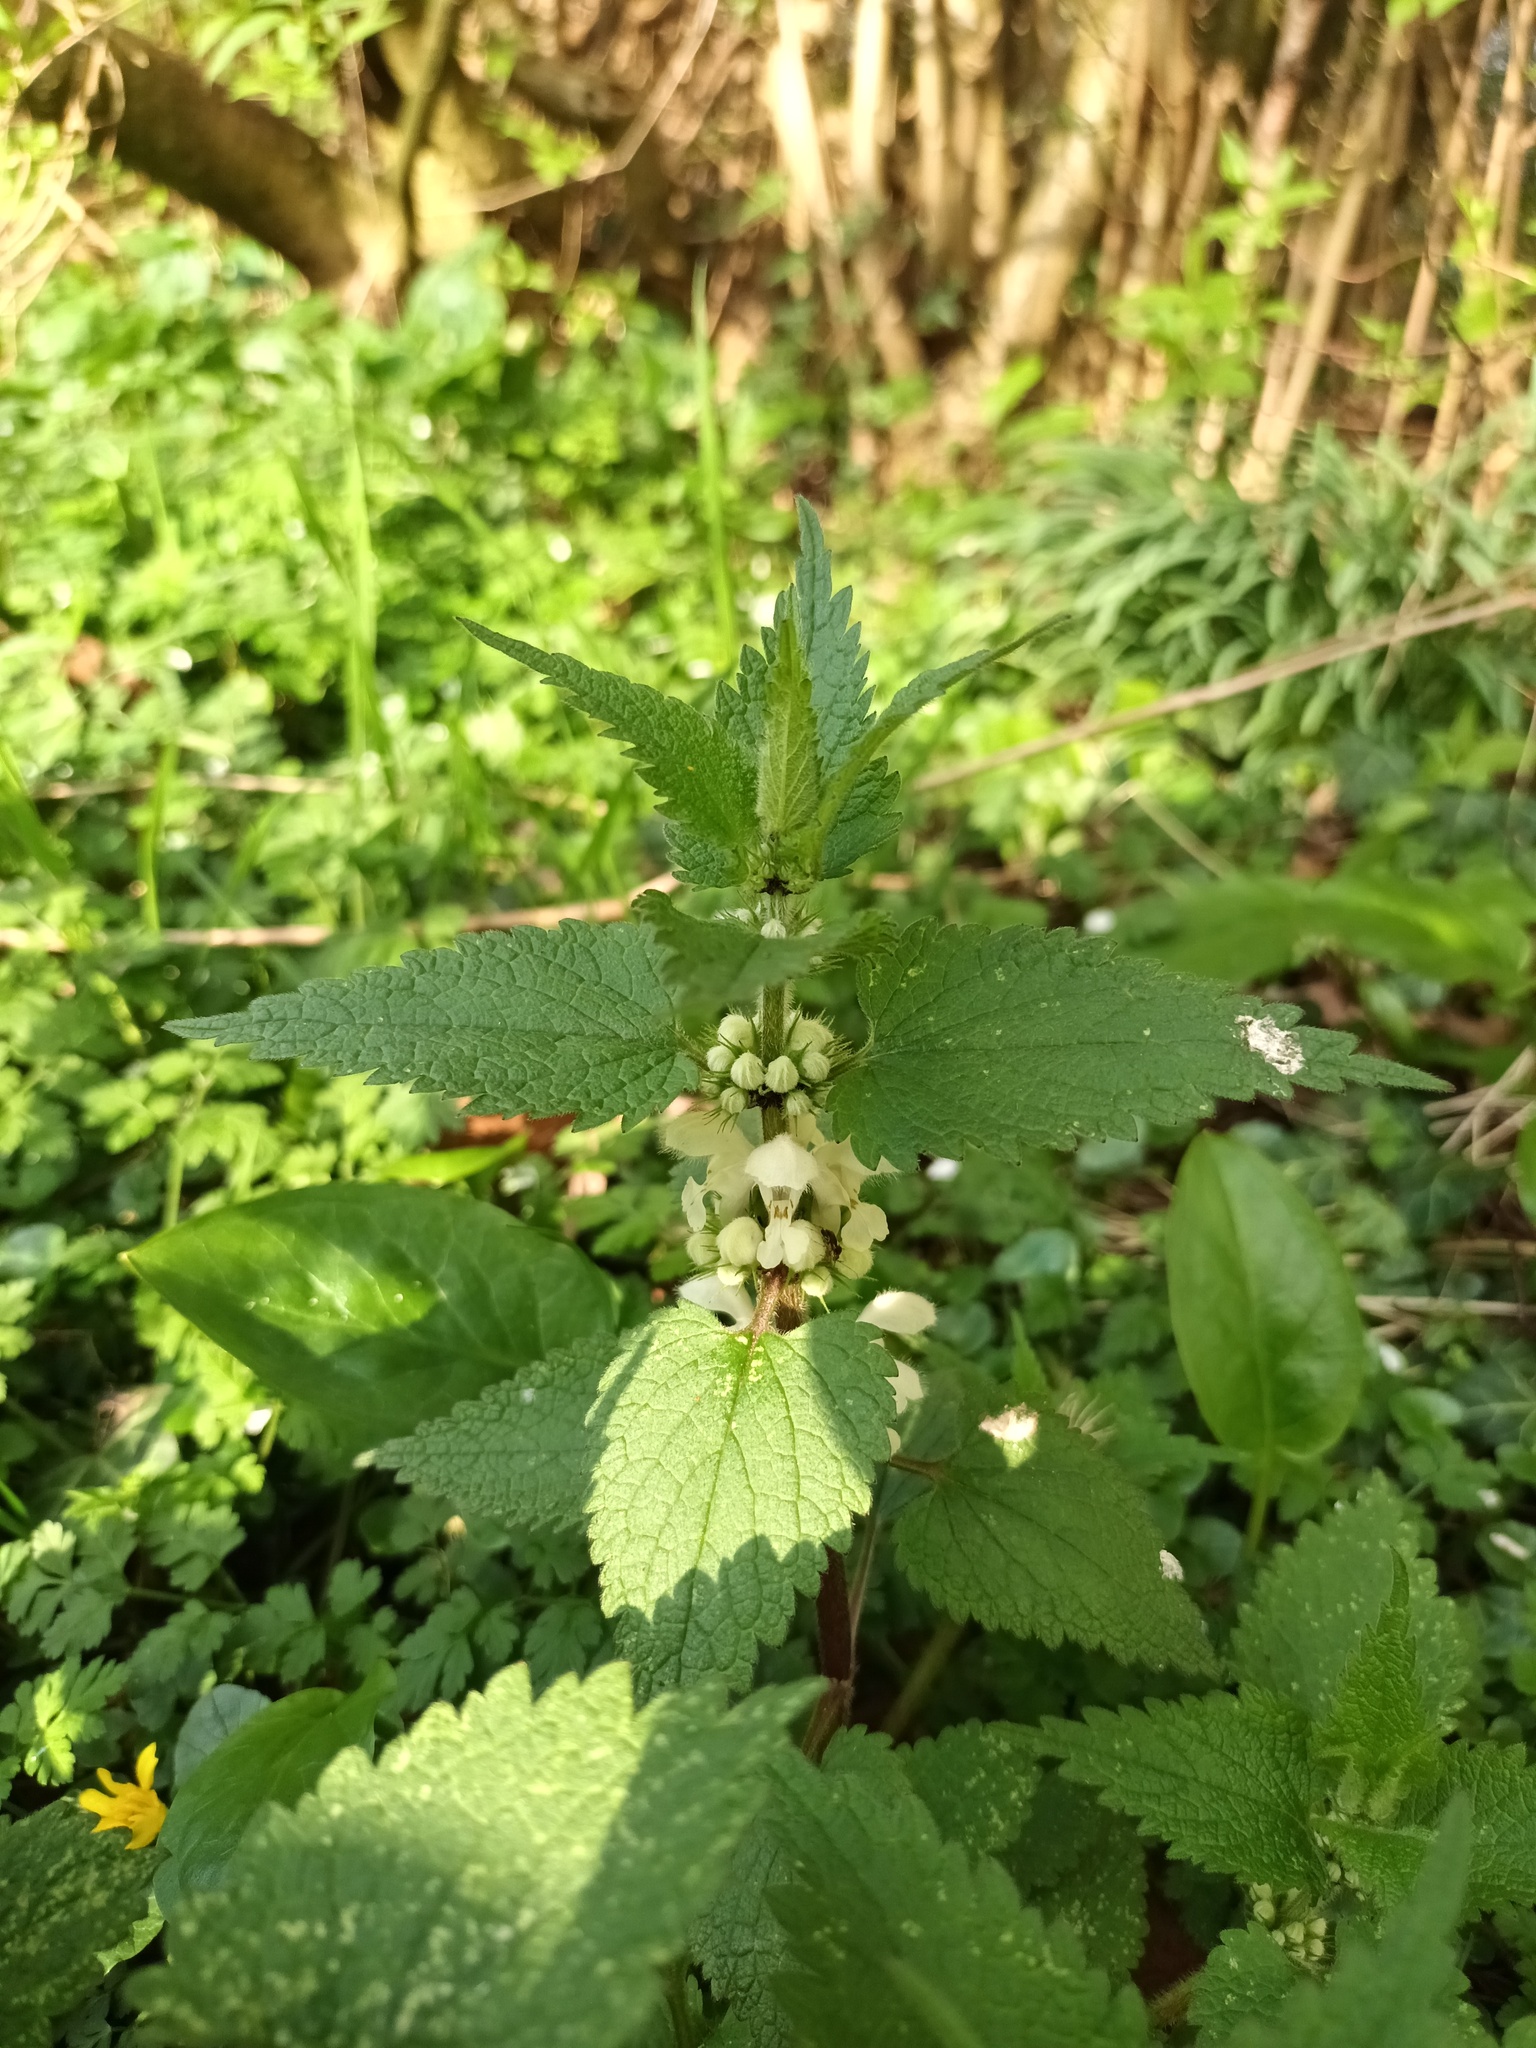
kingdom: Plantae
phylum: Tracheophyta
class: Magnoliopsida
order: Lamiales
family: Lamiaceae
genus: Lamium
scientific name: Lamium album
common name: White dead-nettle
